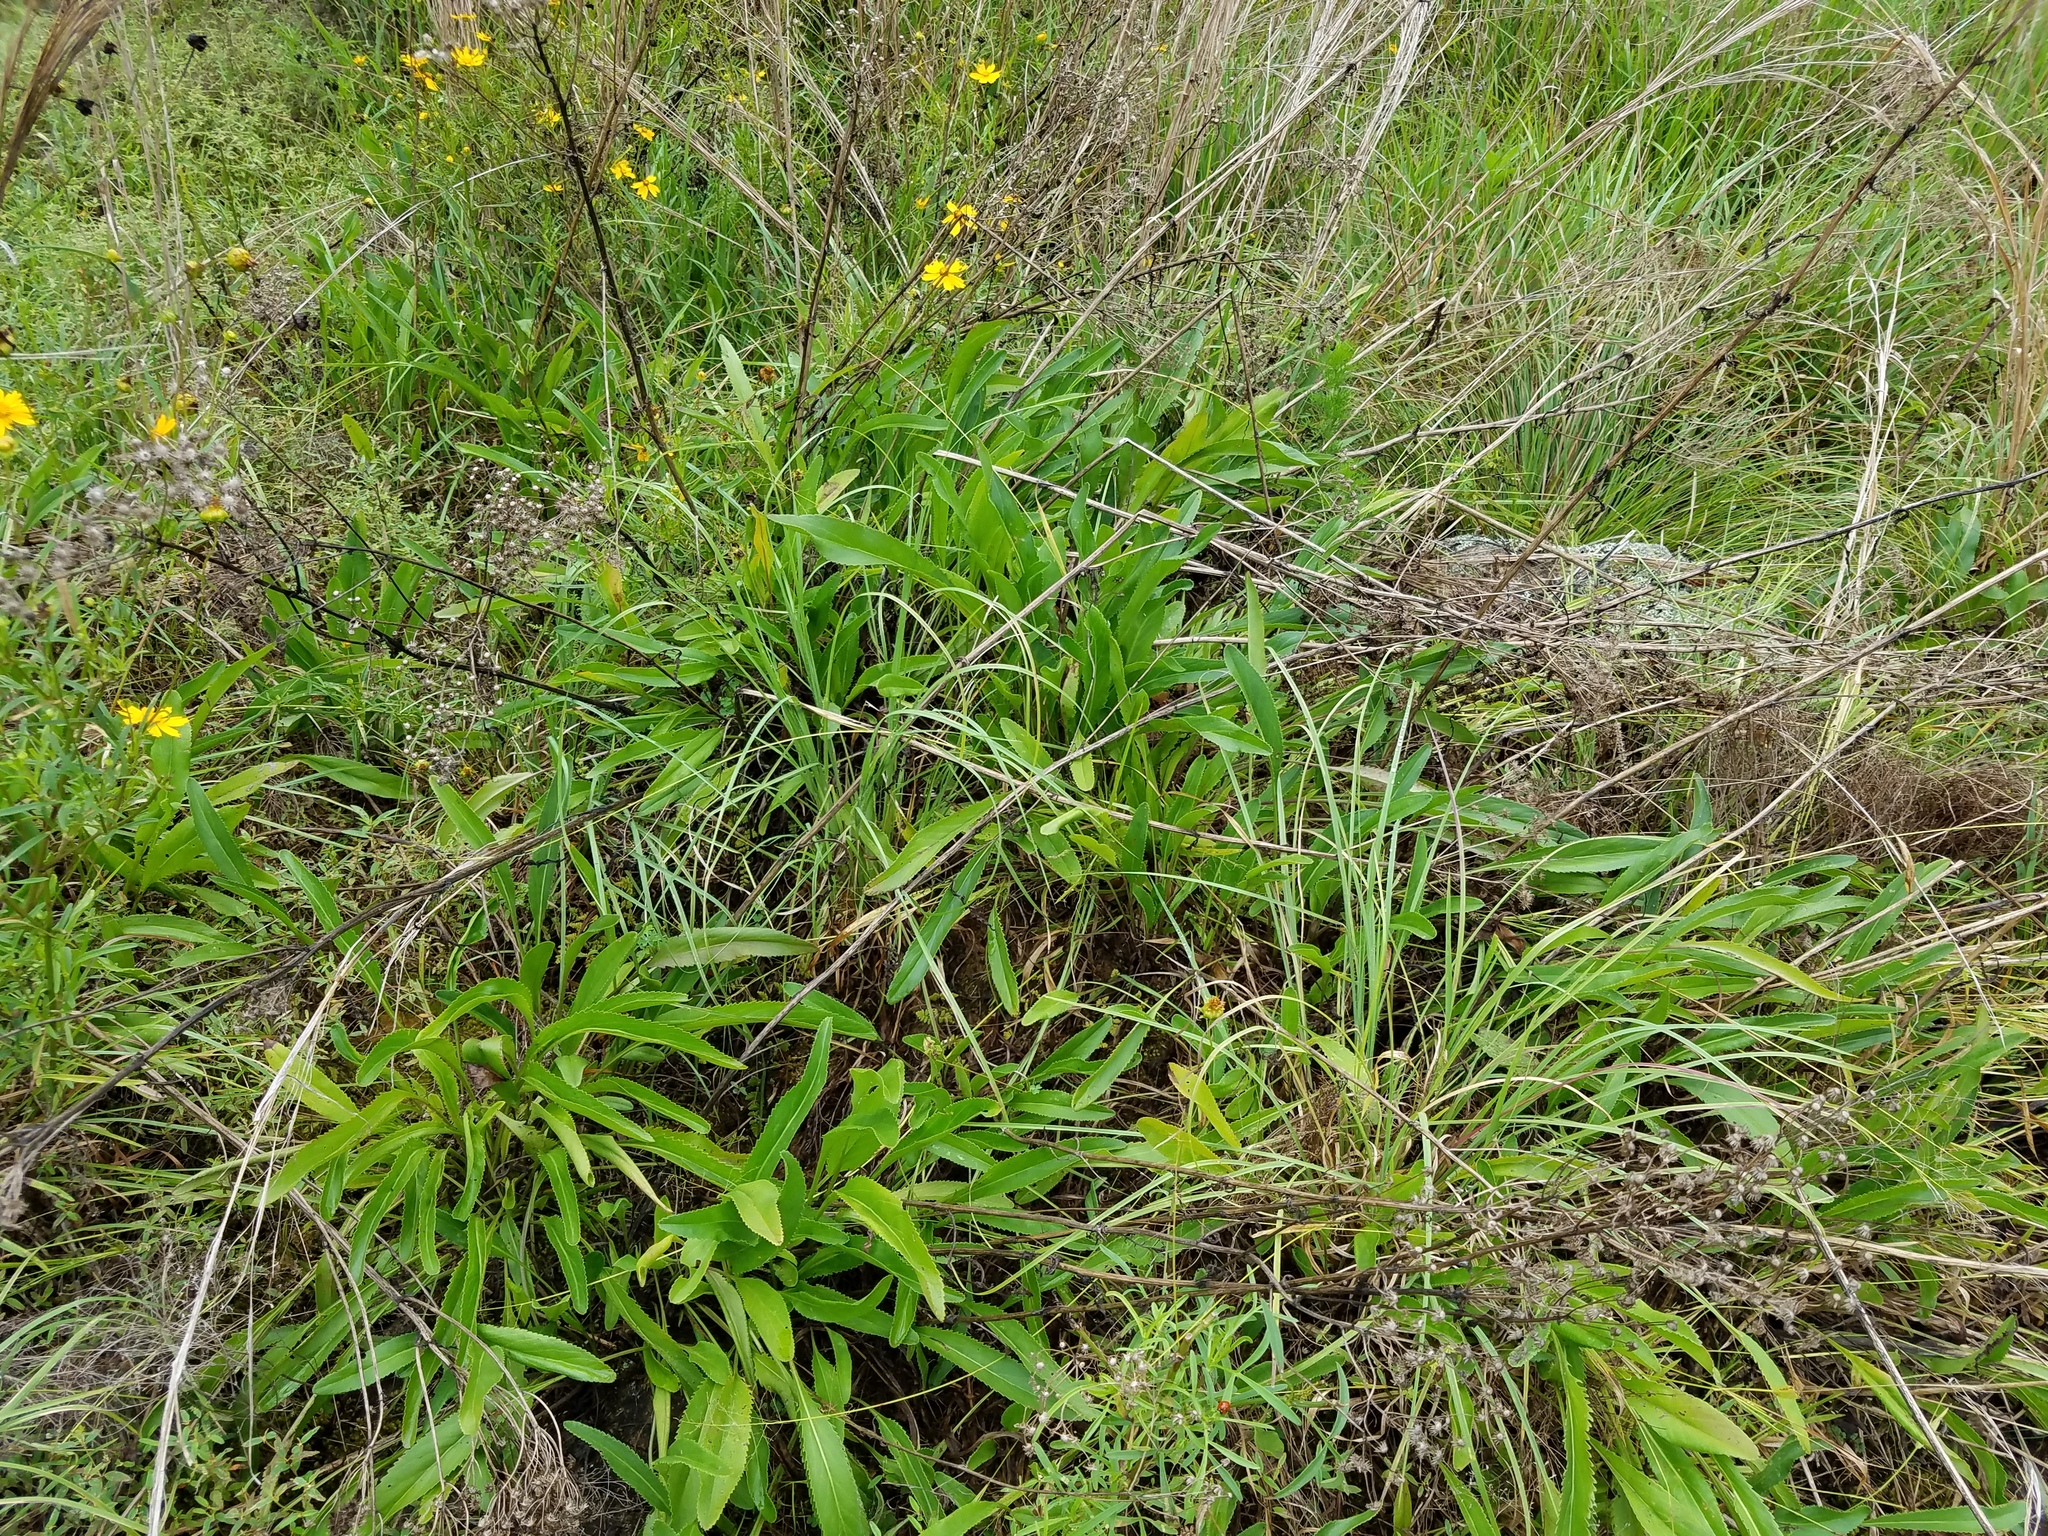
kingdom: Plantae
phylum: Tracheophyta
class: Magnoliopsida
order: Asterales
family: Asteraceae
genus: Packera
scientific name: Packera anonyma
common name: Small ragwort
